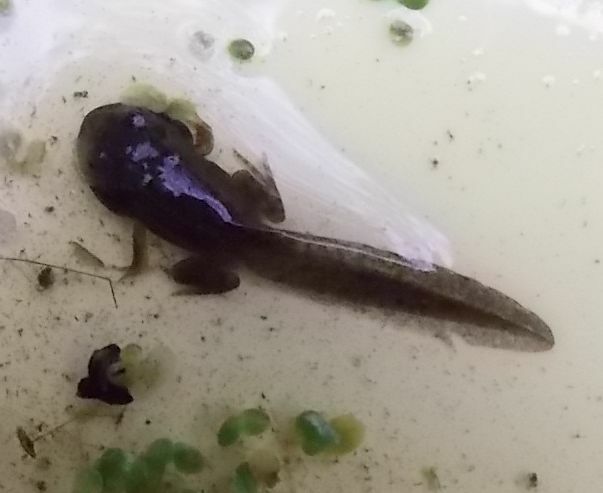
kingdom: Animalia
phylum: Chordata
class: Amphibia
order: Anura
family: Ranidae
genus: Rana
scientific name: Rana temporaria
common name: Common frog
